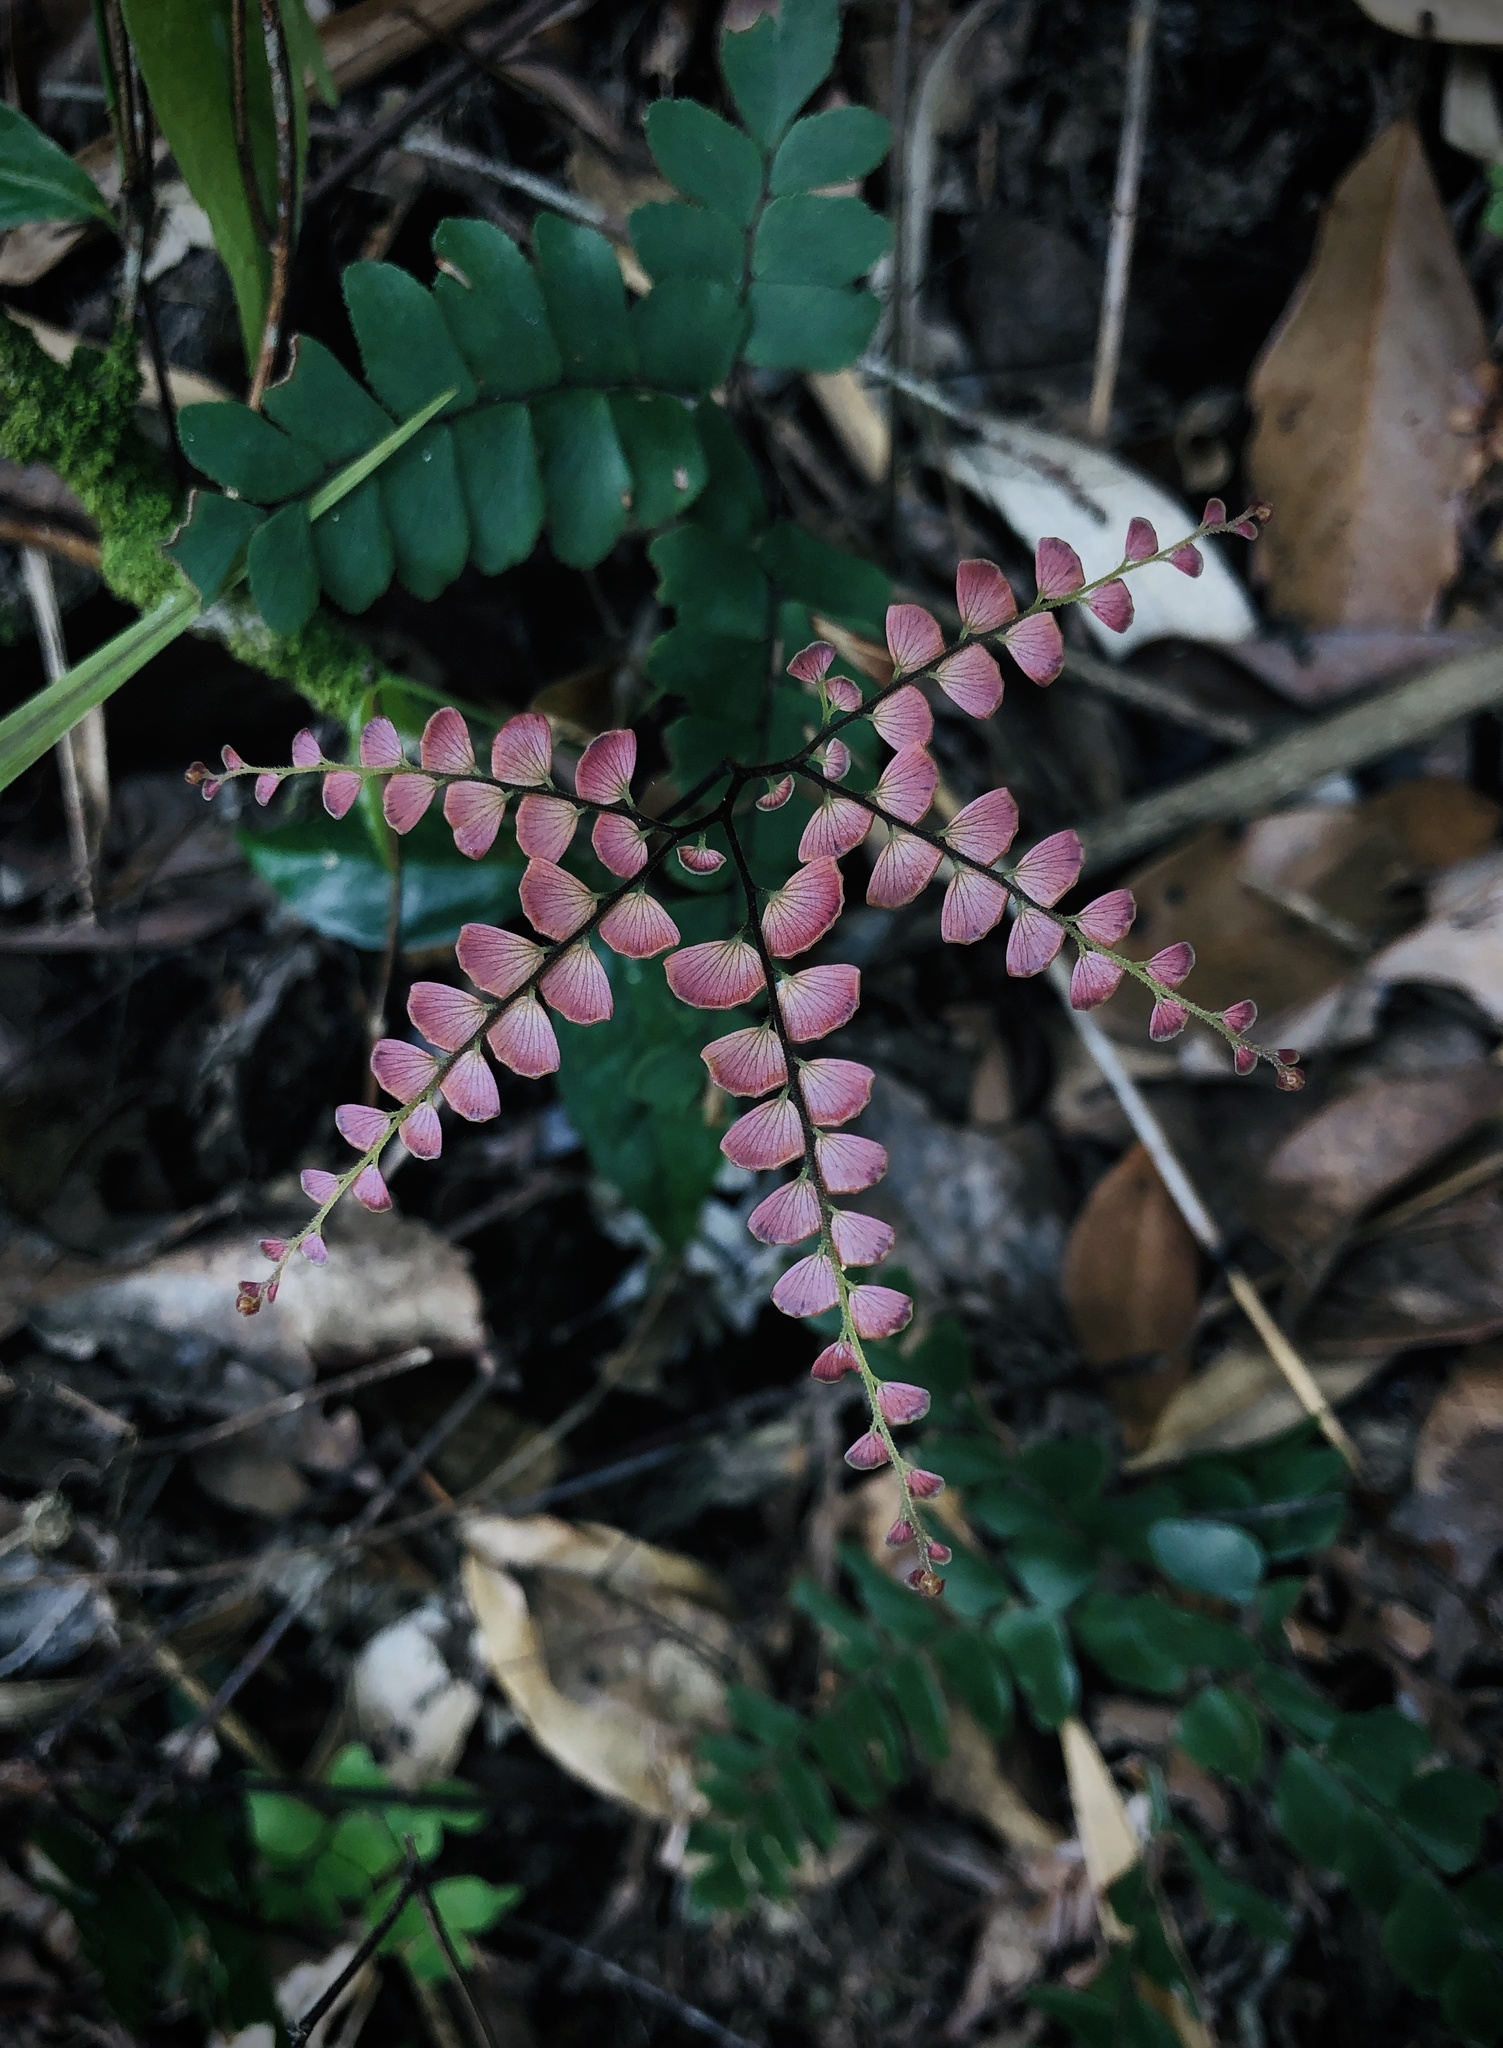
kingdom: Plantae
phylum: Tracheophyta
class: Polypodiopsida
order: Polypodiales
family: Pteridaceae
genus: Adiantum
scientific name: Adiantum flabellulatum
